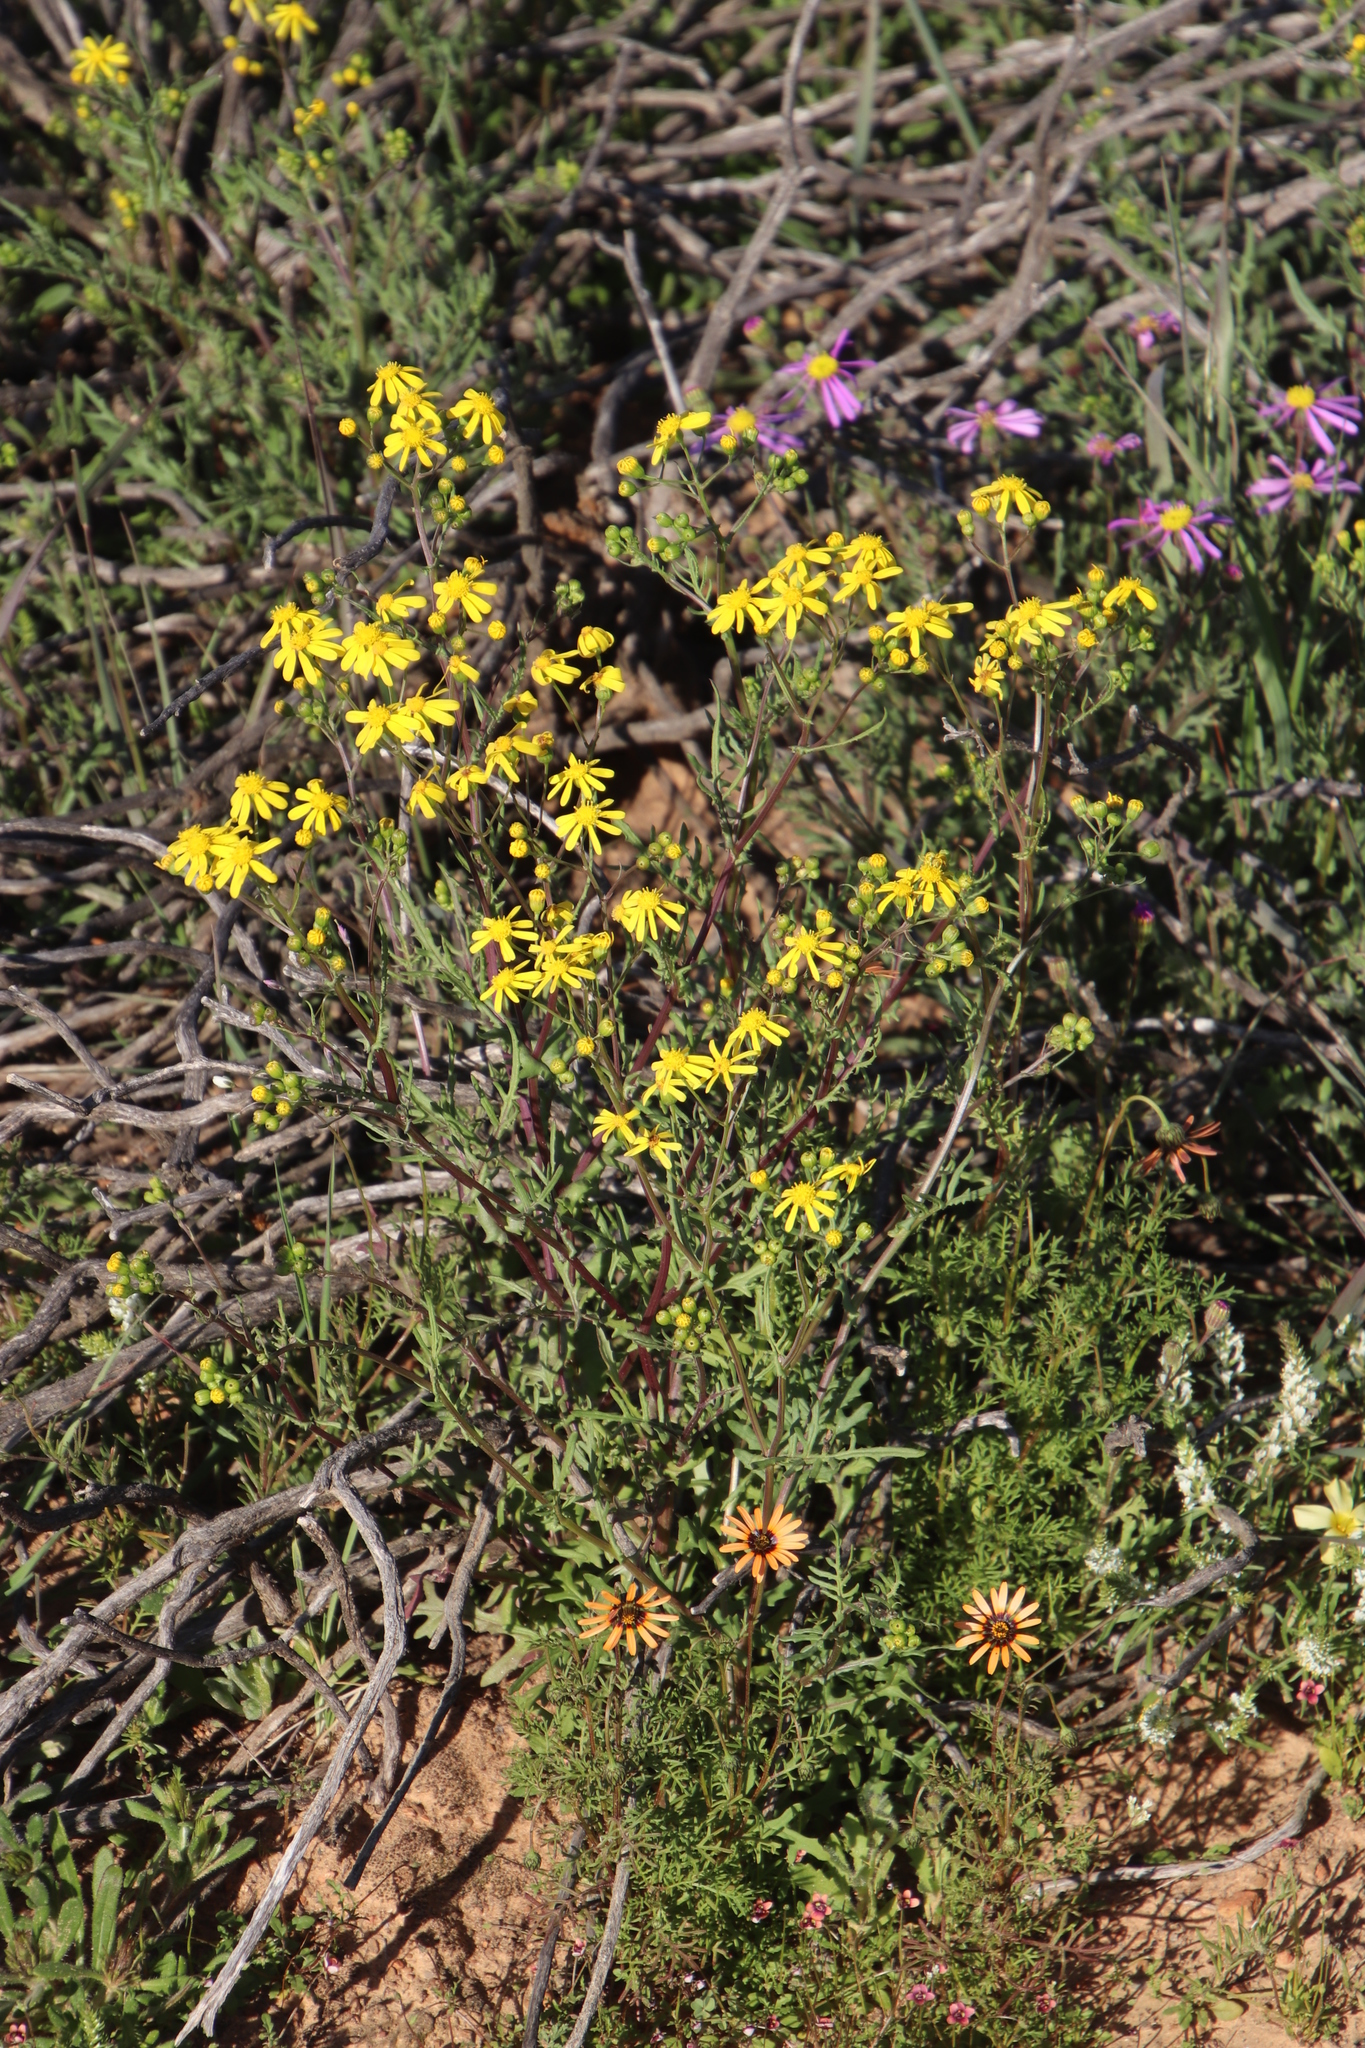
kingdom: Plantae
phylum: Tracheophyta
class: Magnoliopsida
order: Asterales
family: Asteraceae
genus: Senecio
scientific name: Senecio abruptus
